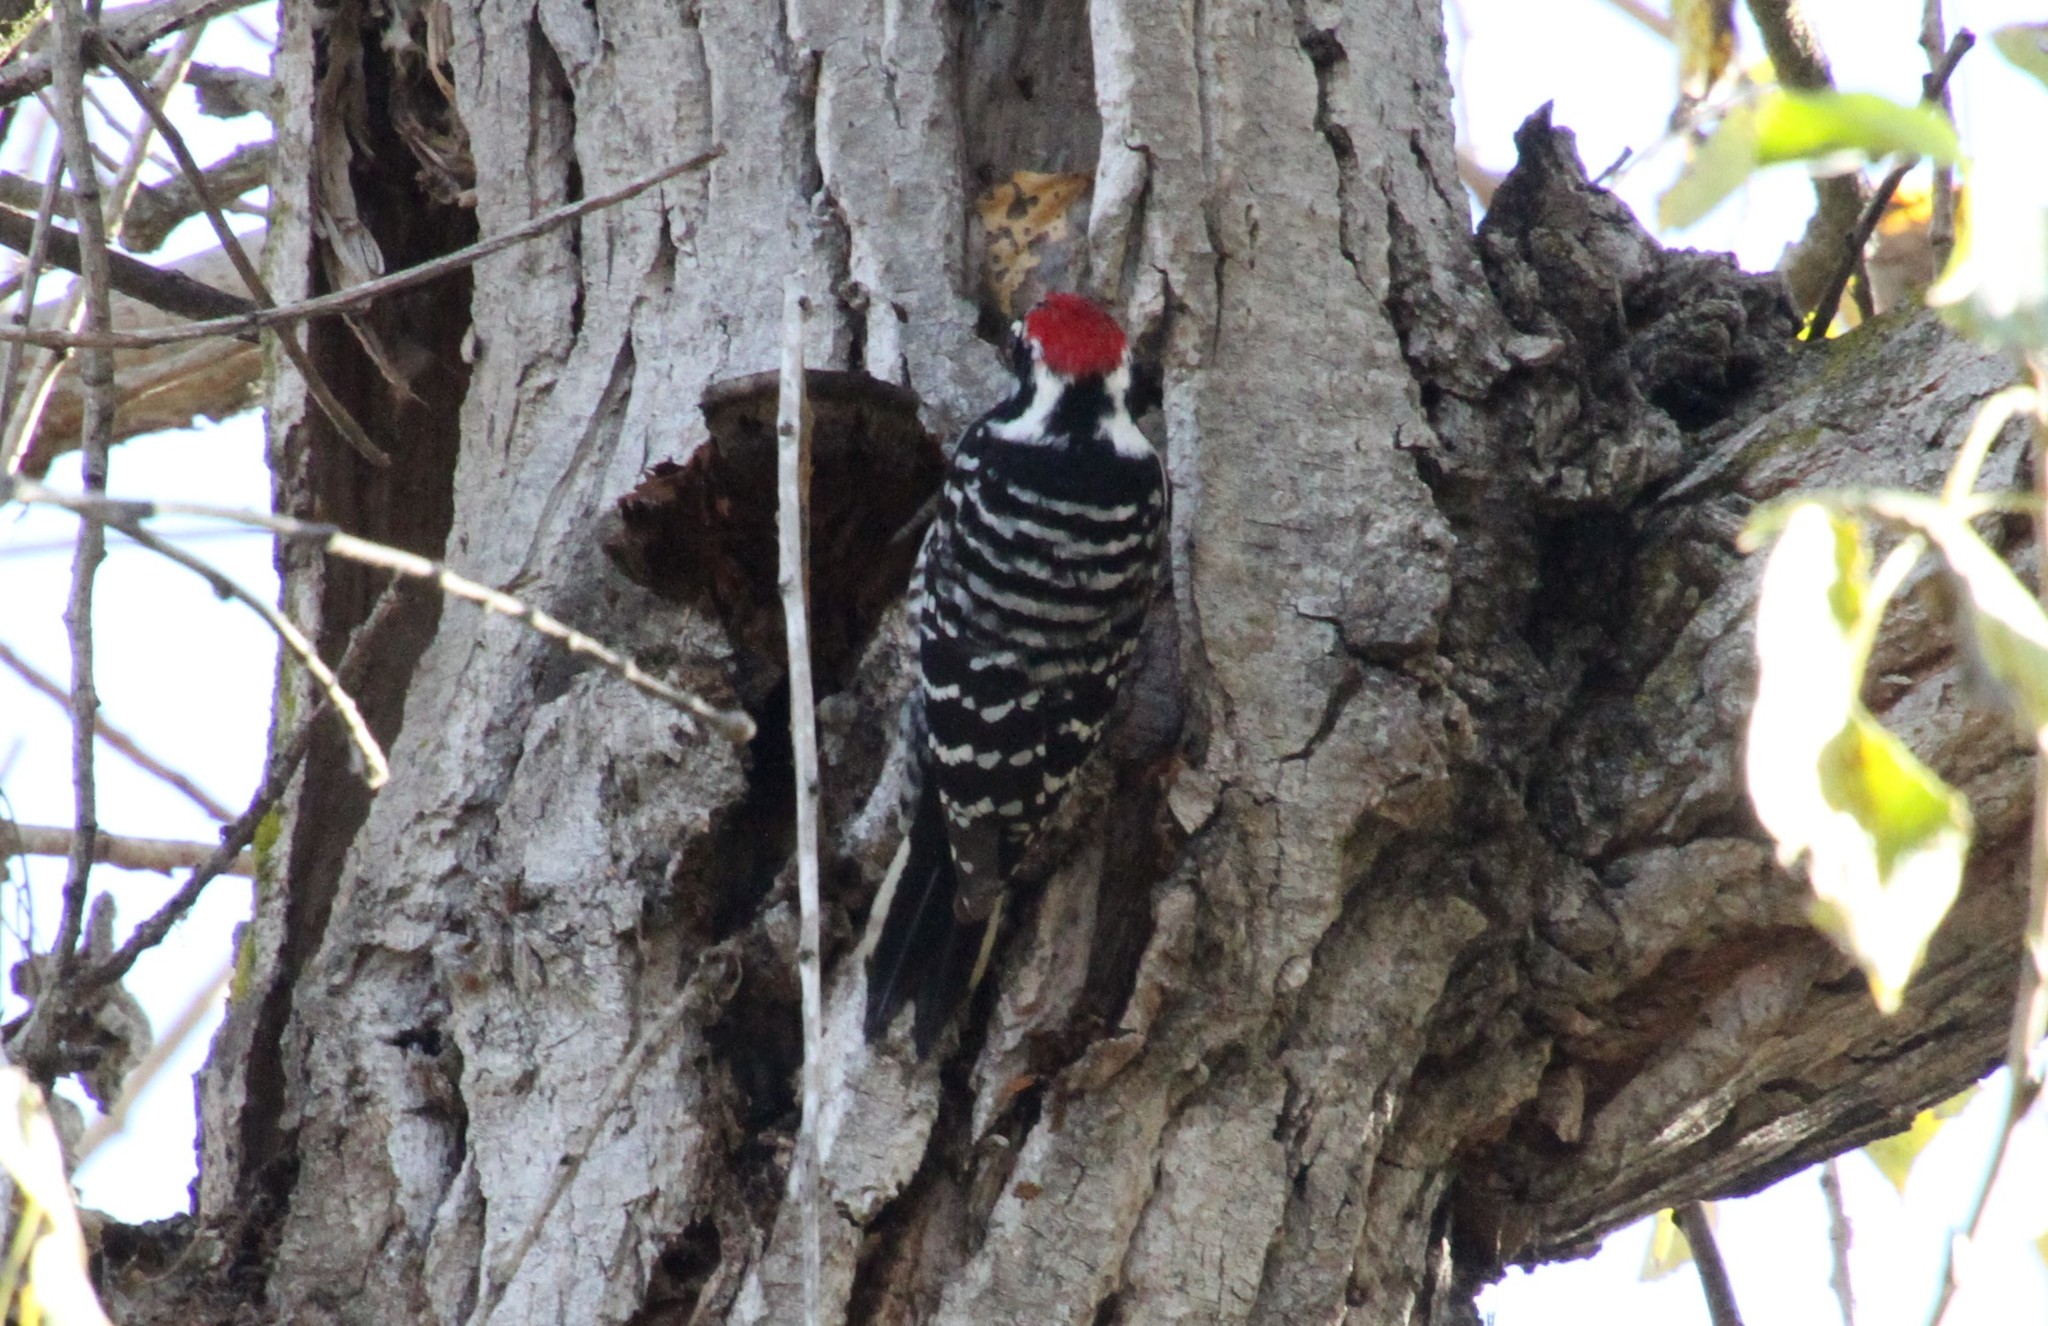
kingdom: Animalia
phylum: Chordata
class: Aves
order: Piciformes
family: Picidae
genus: Dryobates
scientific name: Dryobates nuttallii
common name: Nuttall's woodpecker
